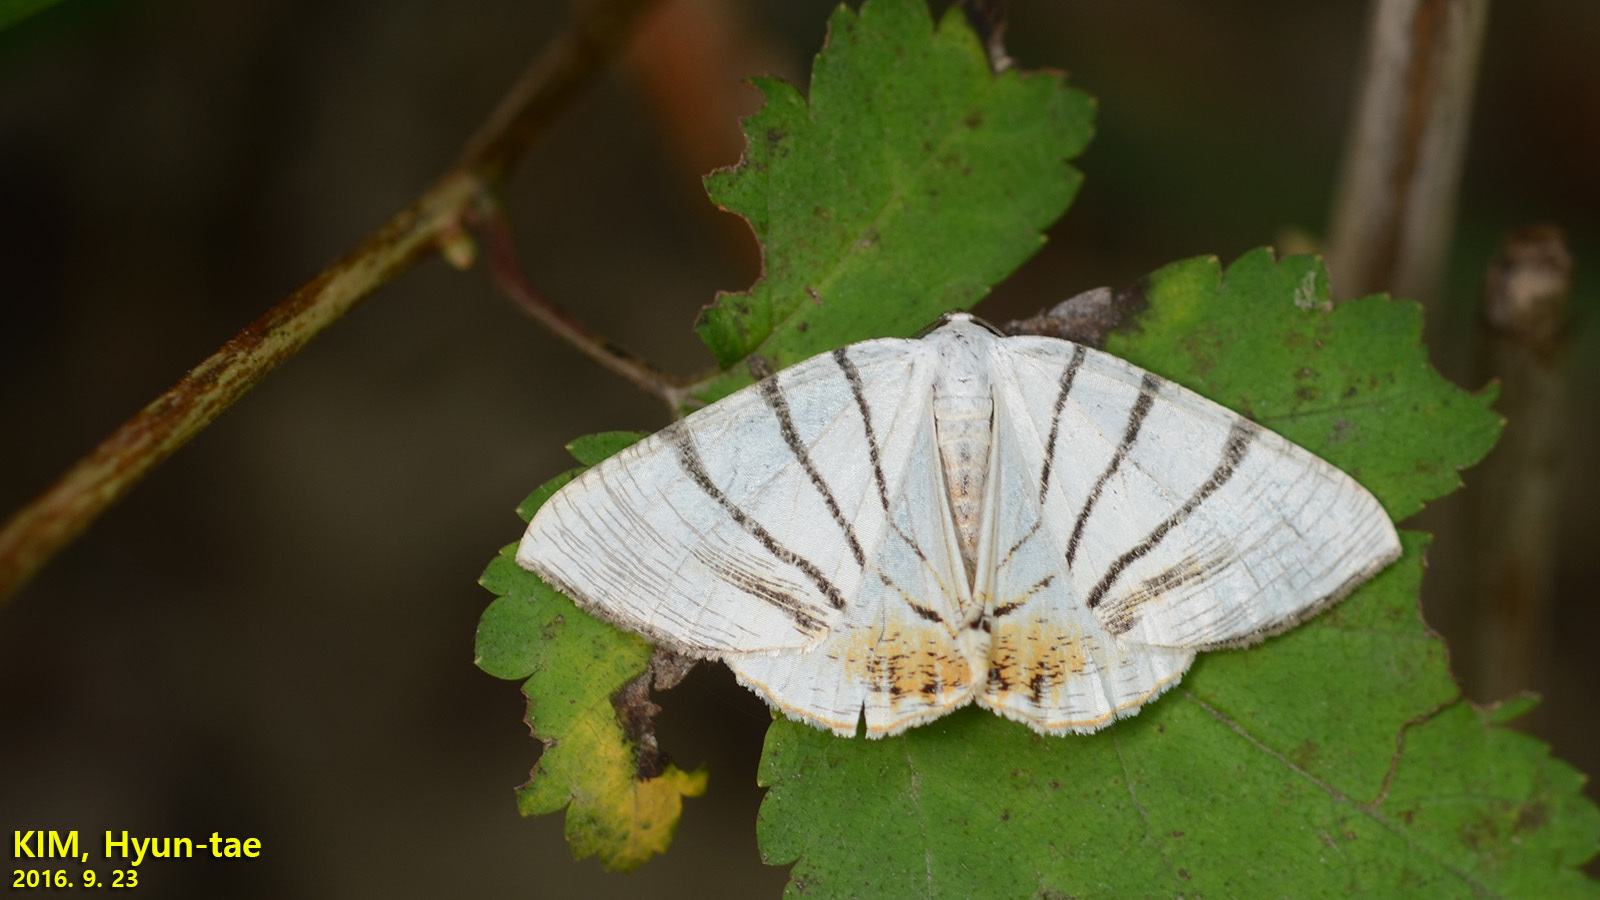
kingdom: Animalia
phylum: Arthropoda
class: Insecta
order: Lepidoptera
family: Geometridae
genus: Myrteta
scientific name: Myrteta angelica
